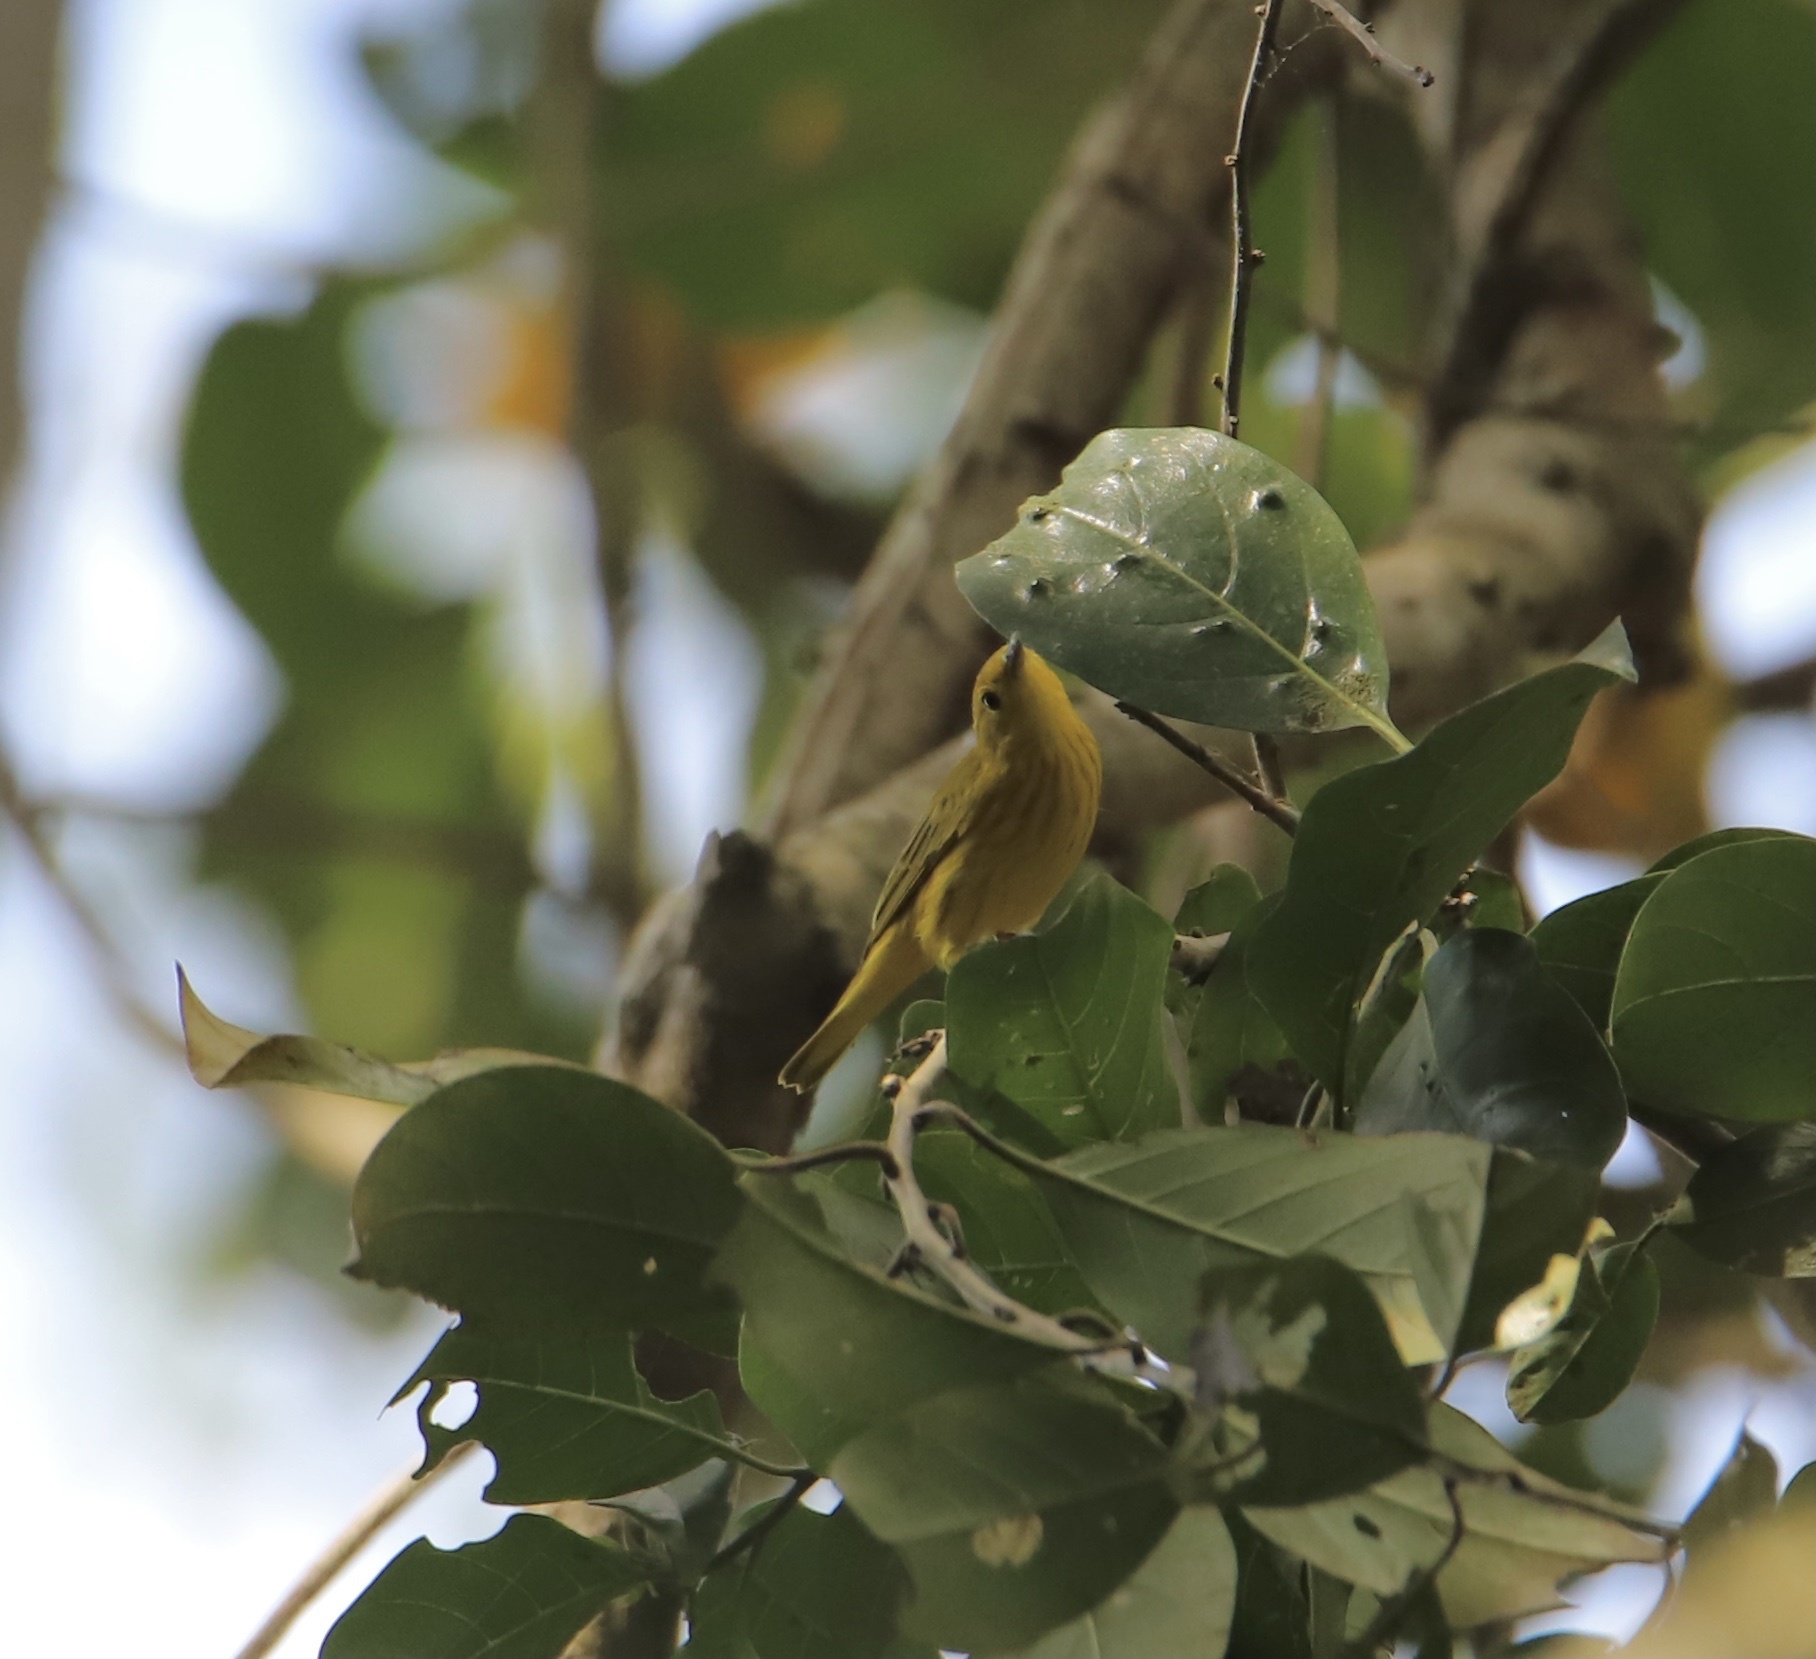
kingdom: Animalia
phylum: Chordata
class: Aves
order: Passeriformes
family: Parulidae
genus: Setophaga
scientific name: Setophaga petechia
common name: Yellow warbler
